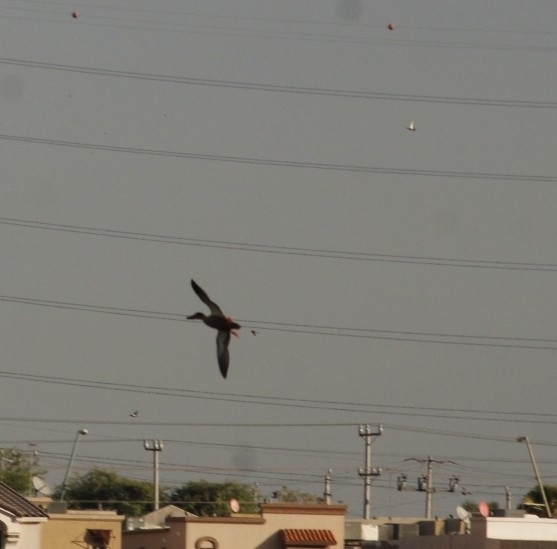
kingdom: Animalia
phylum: Chordata
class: Aves
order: Anseriformes
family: Anatidae
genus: Anas
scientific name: Anas platyrhynchos
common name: Mallard
